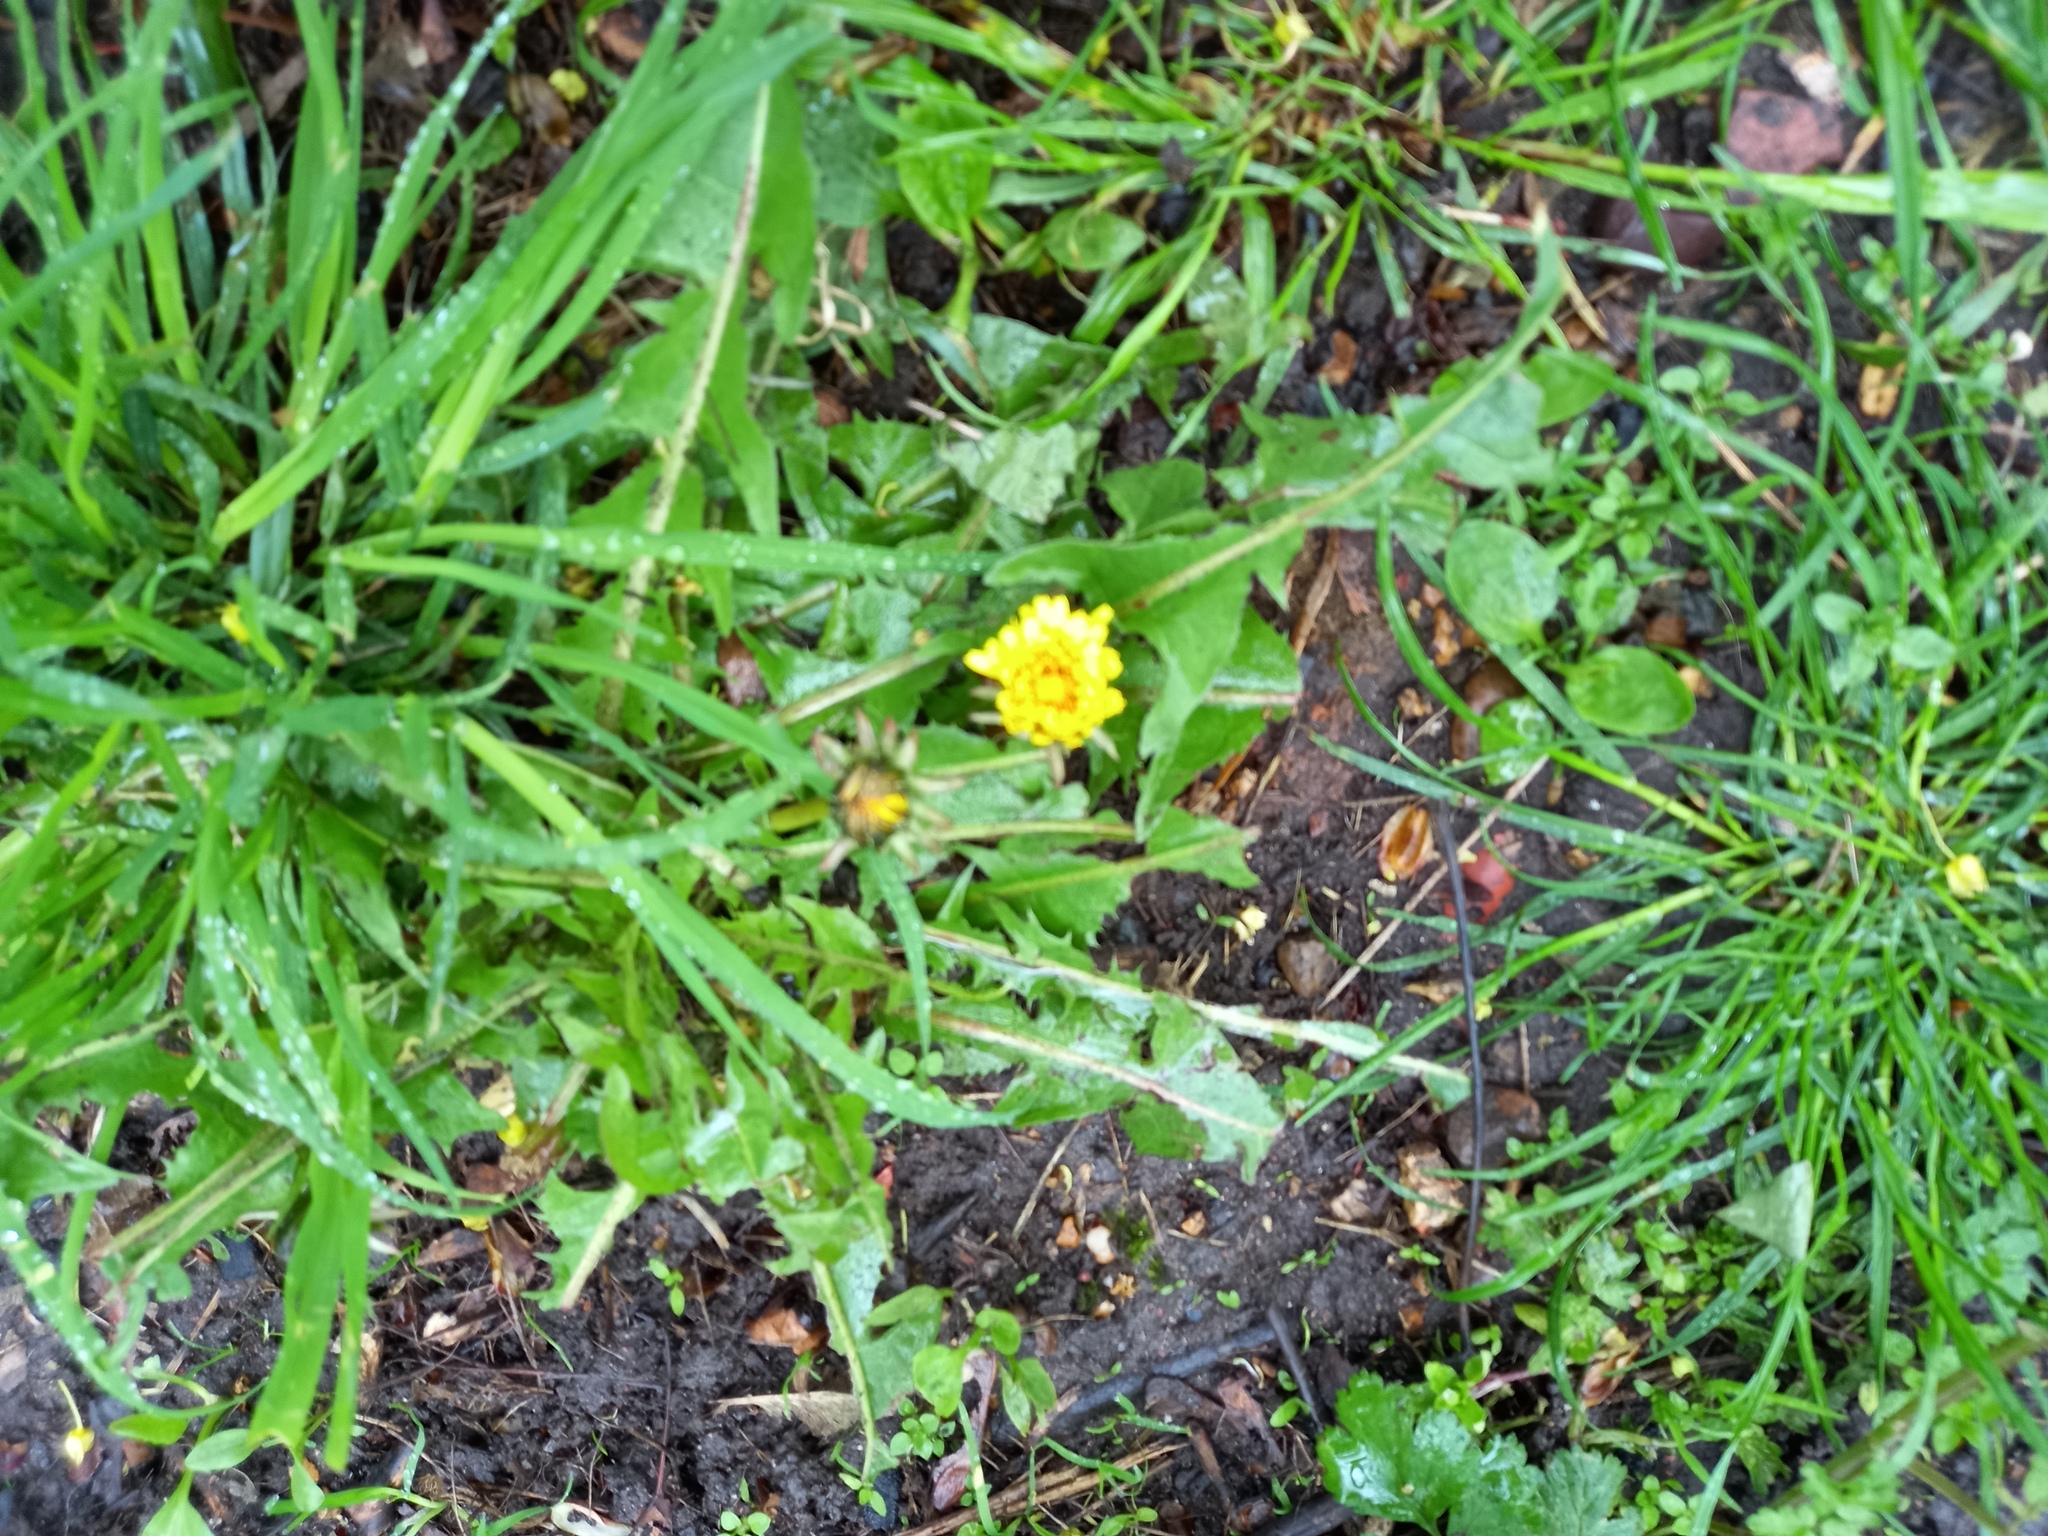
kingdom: Plantae
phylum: Tracheophyta
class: Magnoliopsida
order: Asterales
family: Asteraceae
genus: Taraxacum
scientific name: Taraxacum officinale
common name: Common dandelion
